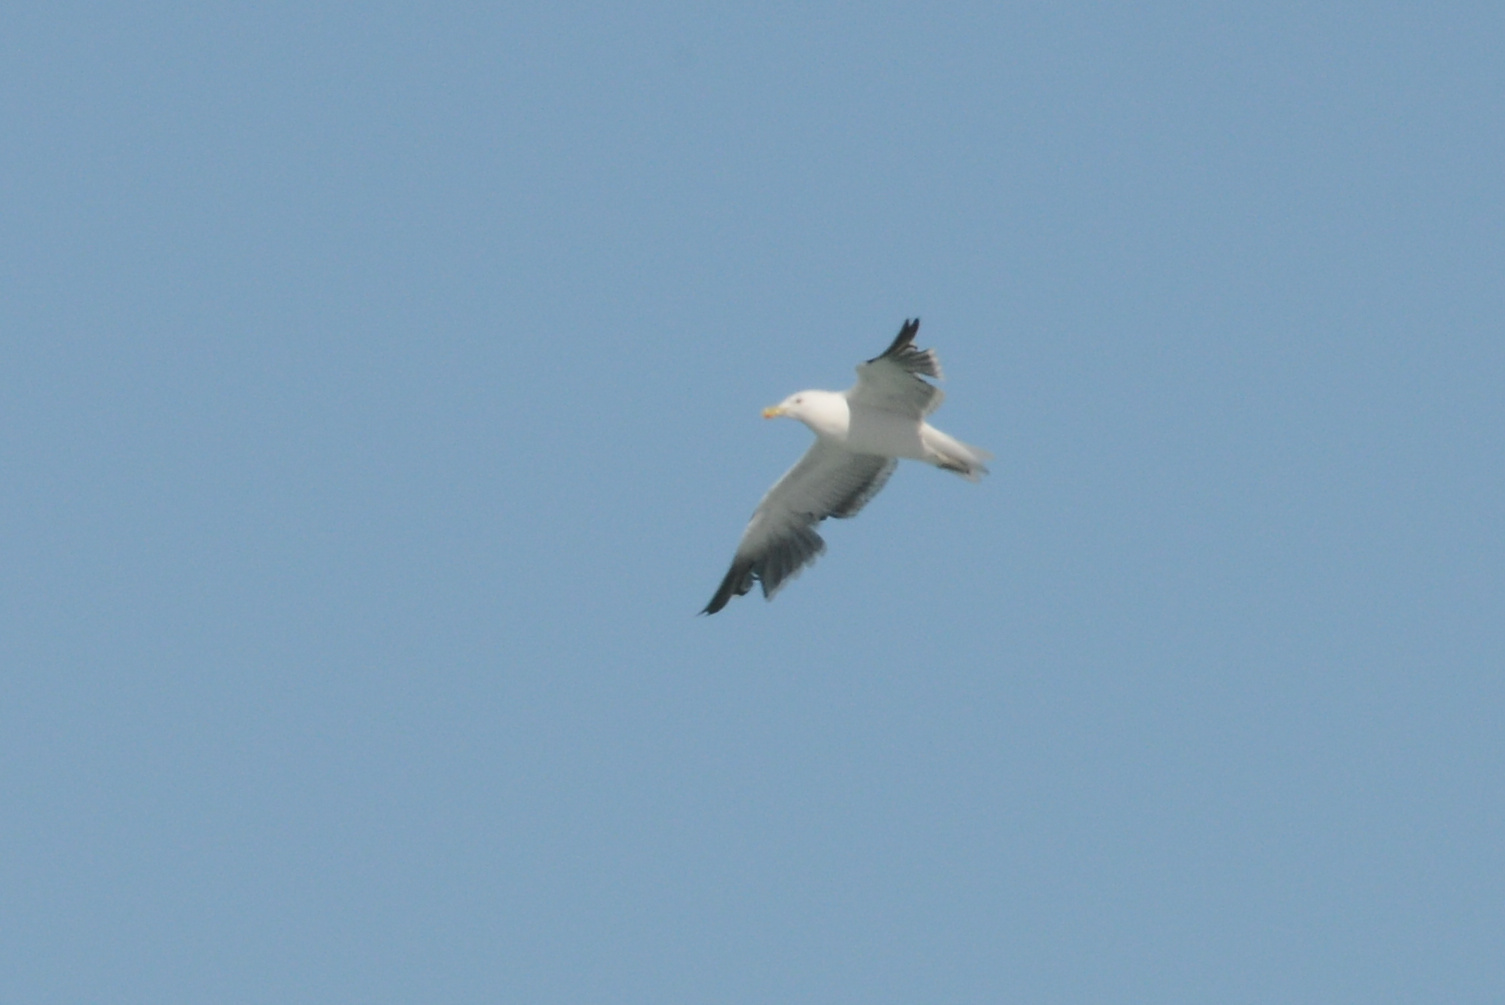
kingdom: Animalia
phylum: Chordata
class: Aves
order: Charadriiformes
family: Laridae
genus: Larus
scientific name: Larus dominicanus
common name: Kelp gull
